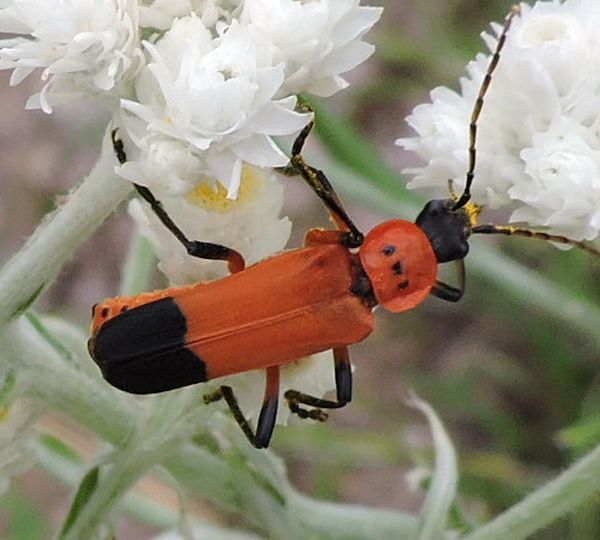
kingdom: Animalia
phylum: Arthropoda
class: Insecta
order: Coleoptera
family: Cantharidae
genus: Chauliognathus
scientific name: Chauliognathus profundus
